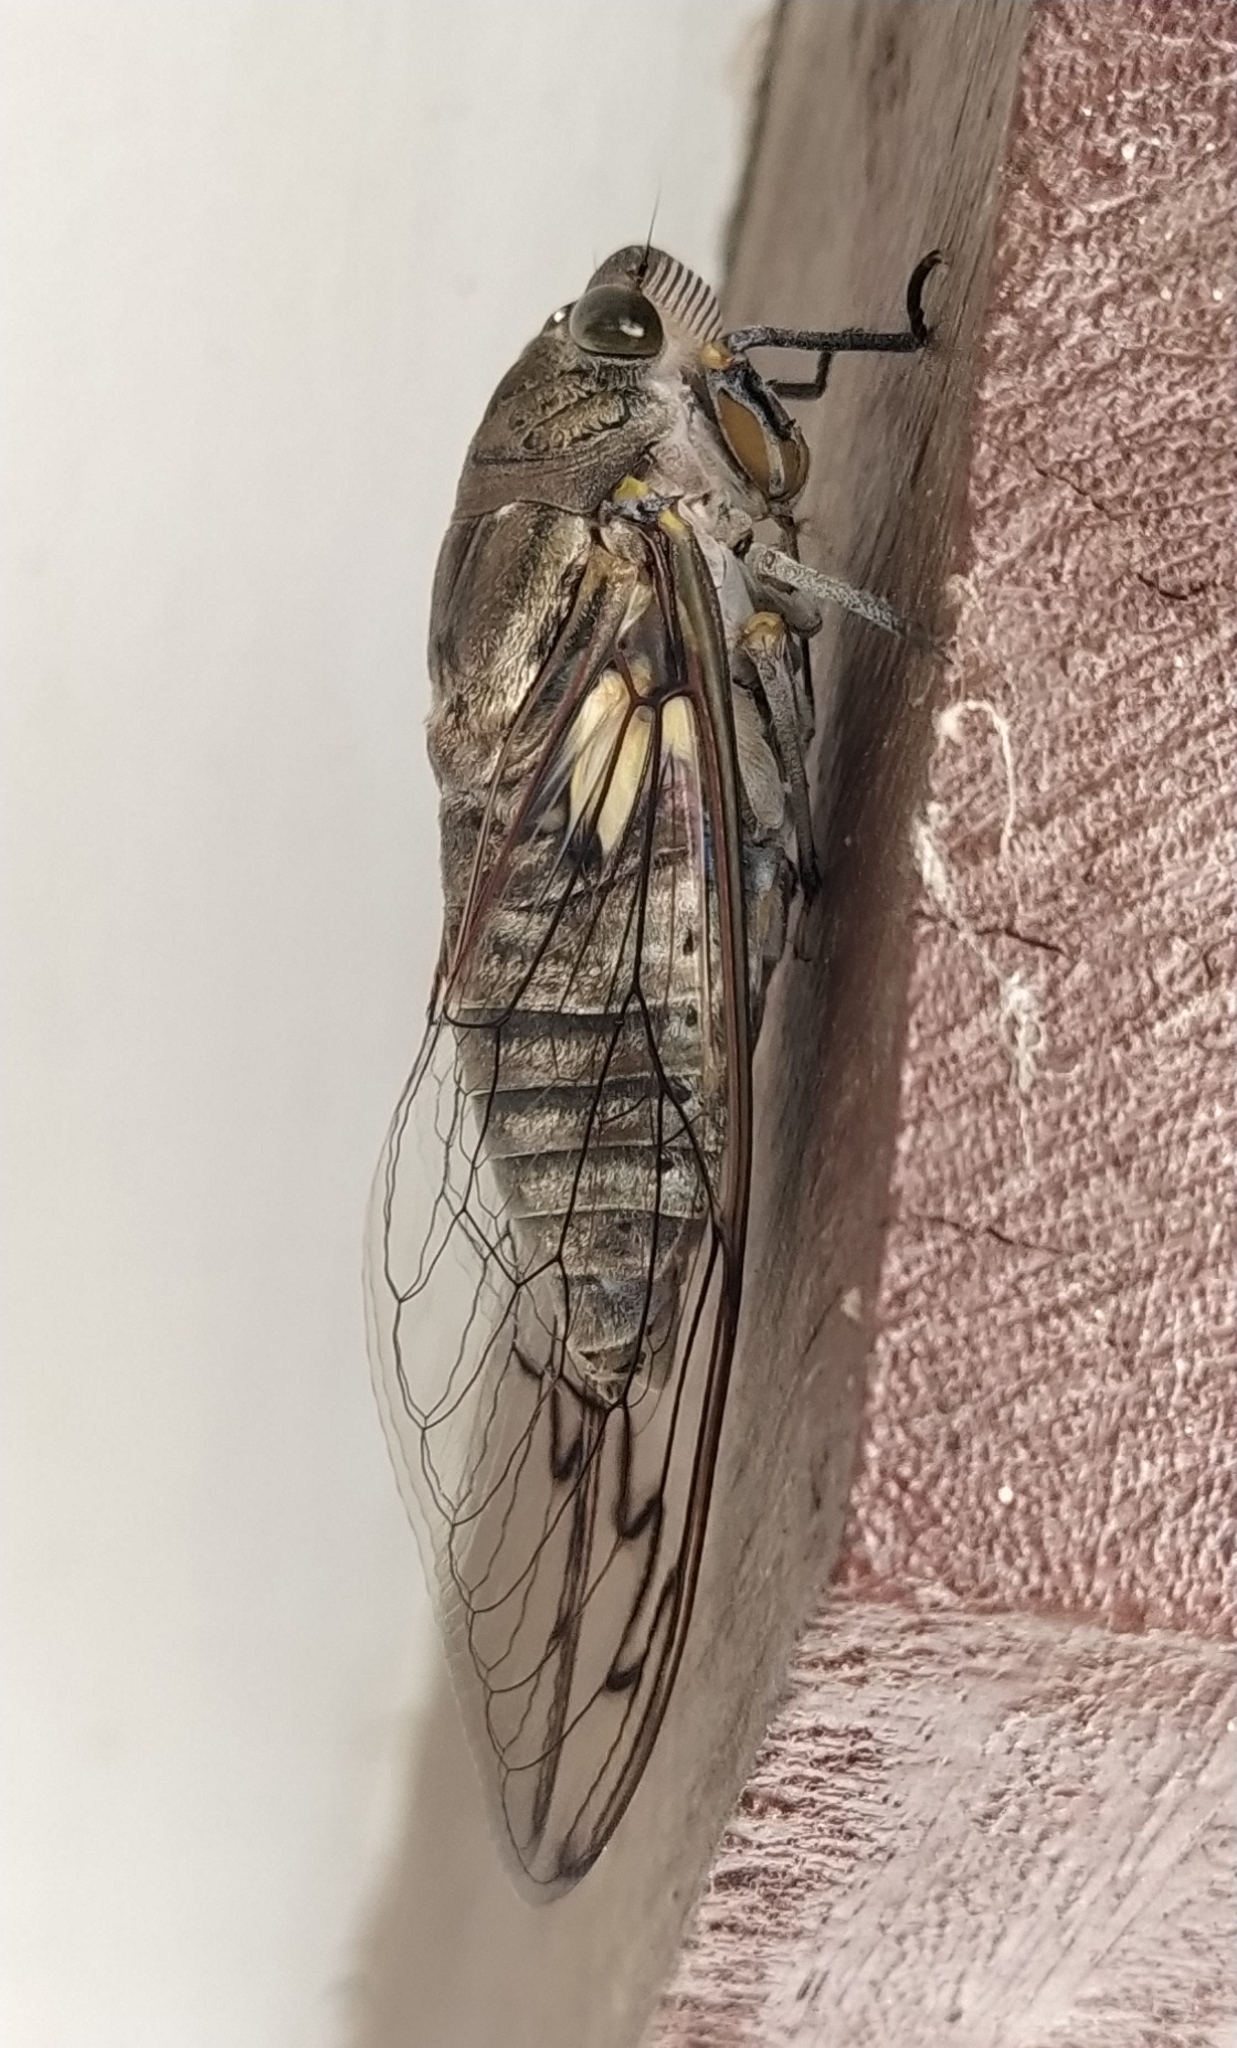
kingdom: Animalia
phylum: Arthropoda
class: Insecta
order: Hemiptera
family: Cicadidae
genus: Quesada
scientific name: Quesada gigas
